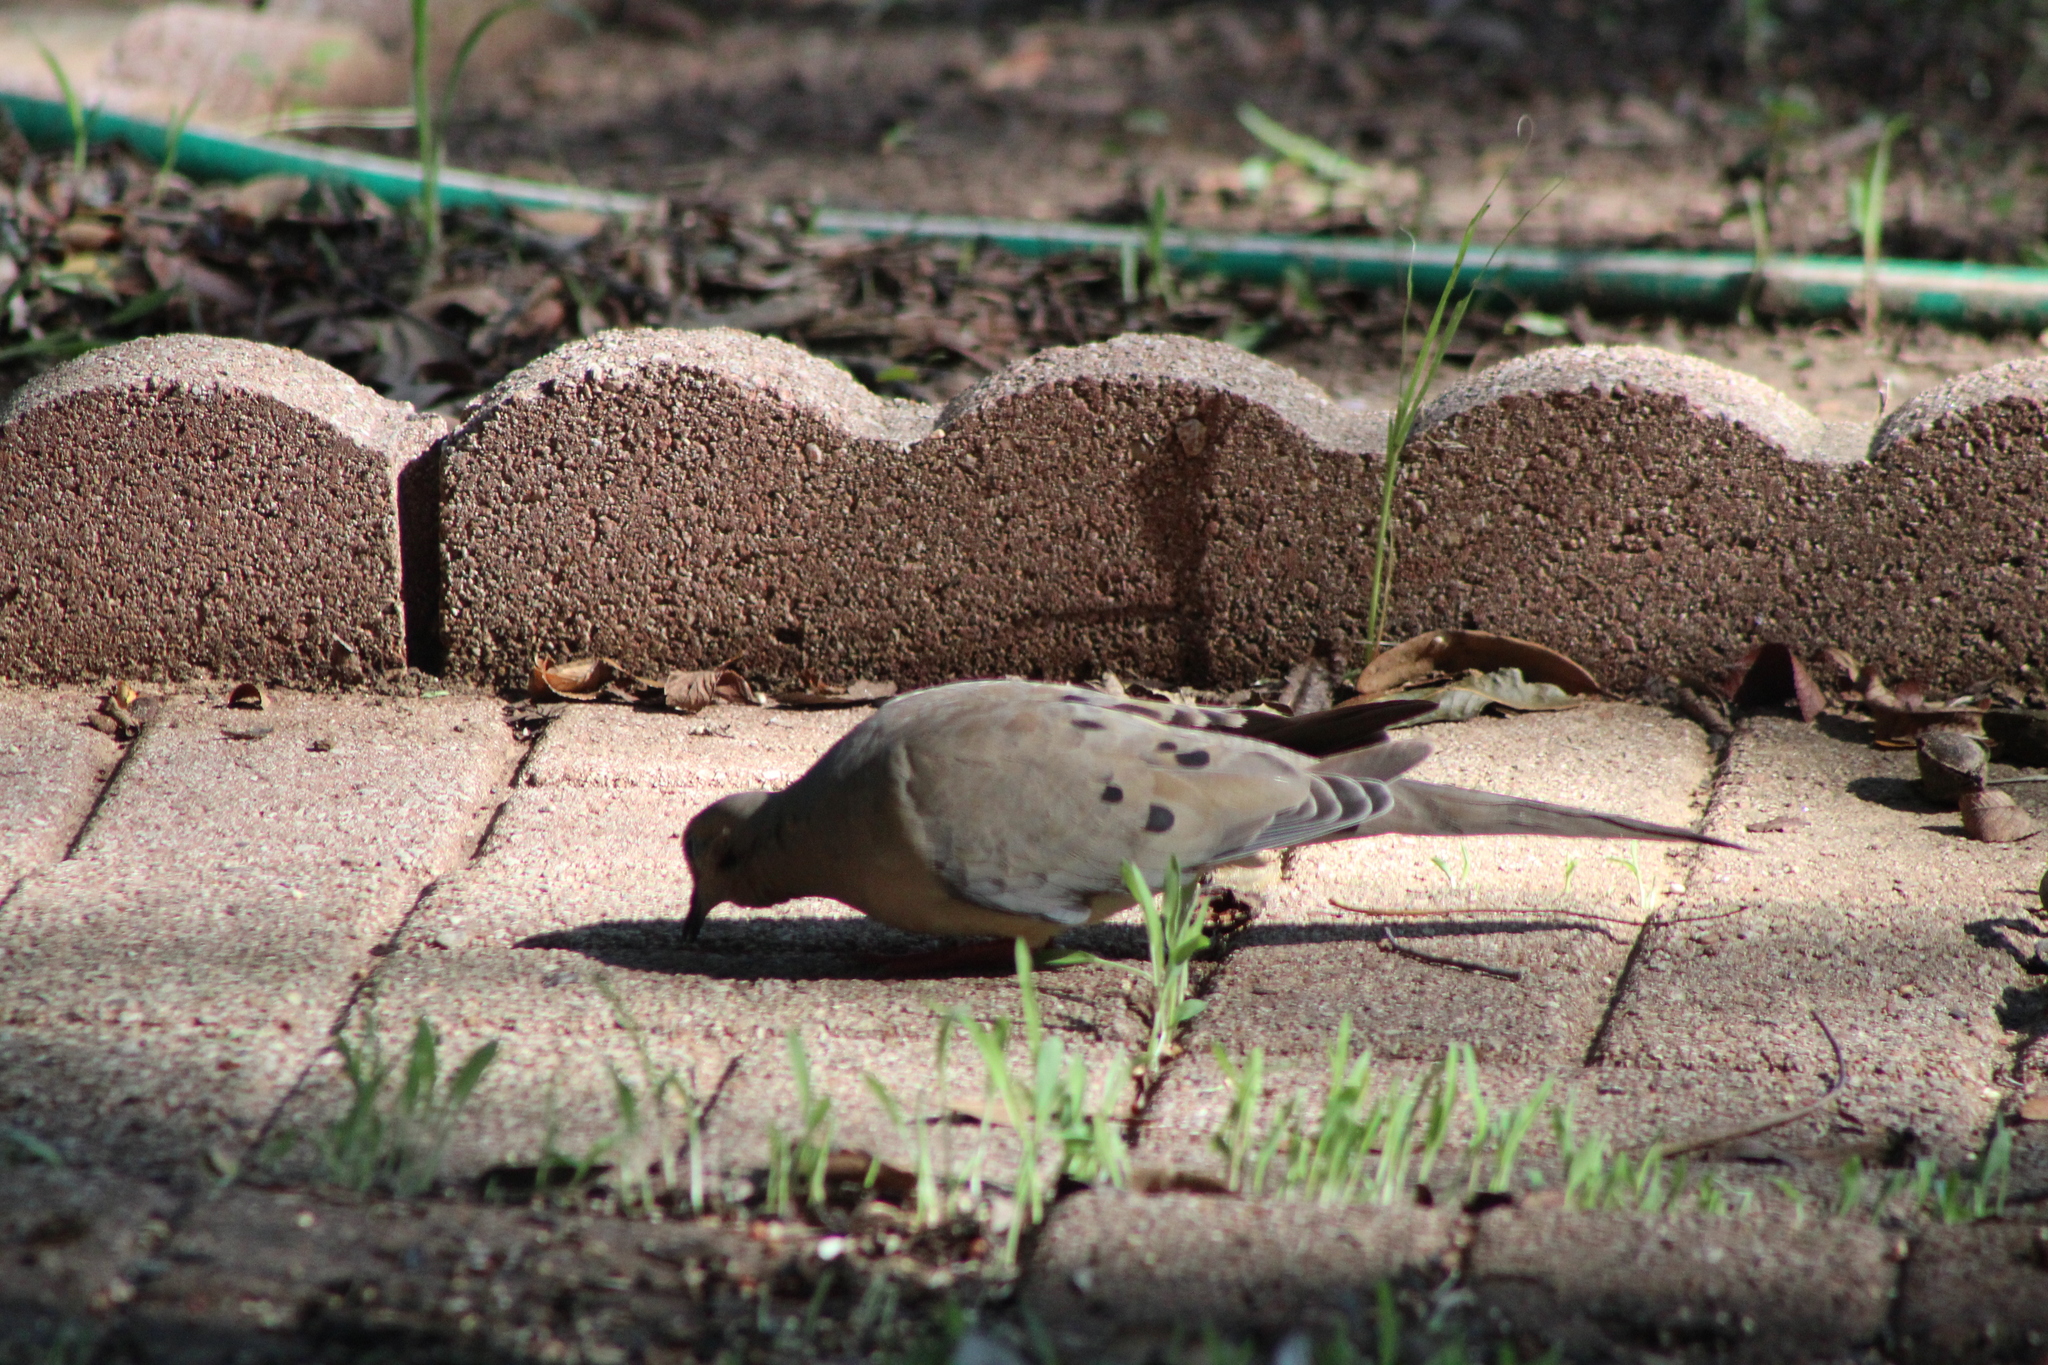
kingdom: Animalia
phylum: Chordata
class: Aves
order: Columbiformes
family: Columbidae
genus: Zenaida
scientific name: Zenaida macroura
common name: Mourning dove
